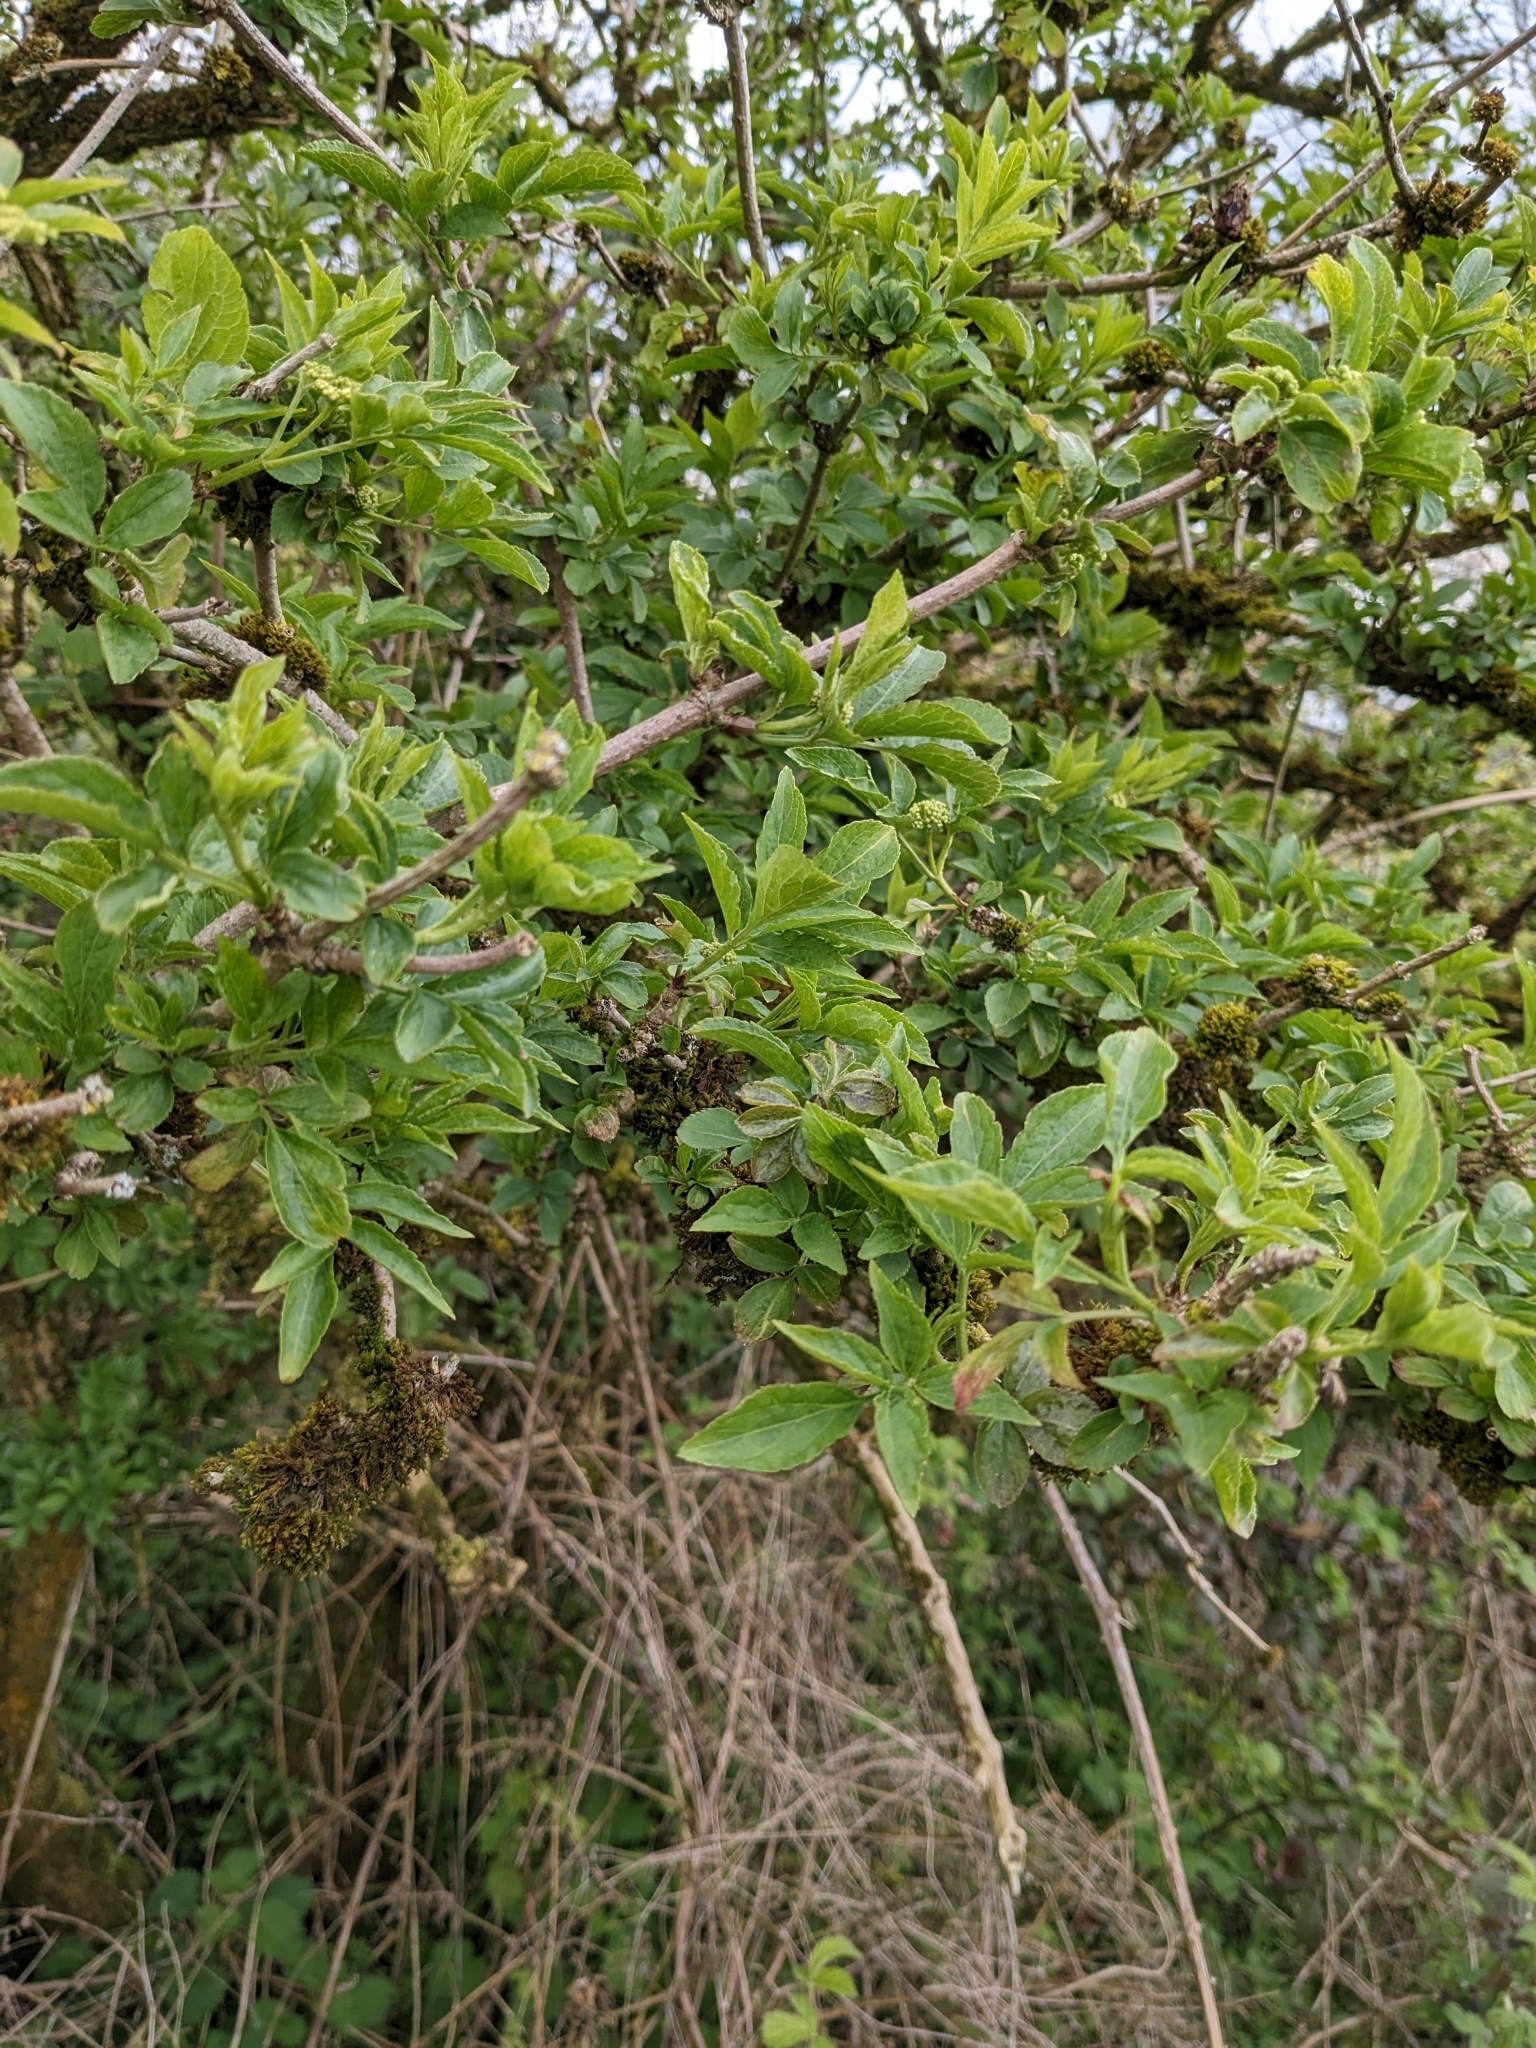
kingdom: Plantae
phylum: Tracheophyta
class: Magnoliopsida
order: Dipsacales
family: Viburnaceae
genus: Sambucus
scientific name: Sambucus nigra
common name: Elder
